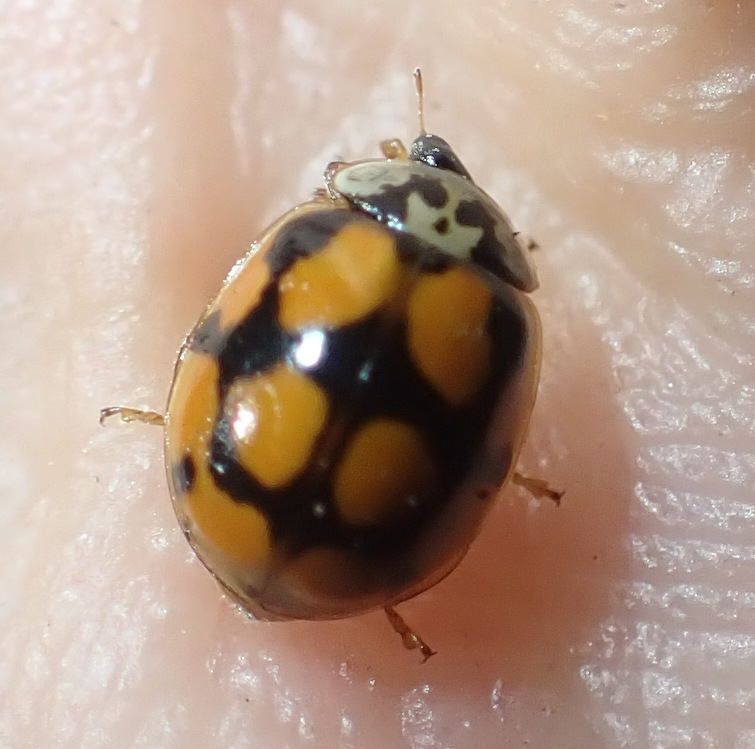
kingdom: Animalia
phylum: Arthropoda
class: Insecta
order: Coleoptera
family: Coccinellidae
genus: Adalia
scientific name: Adalia decempunctata
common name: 10-spot ladybird
